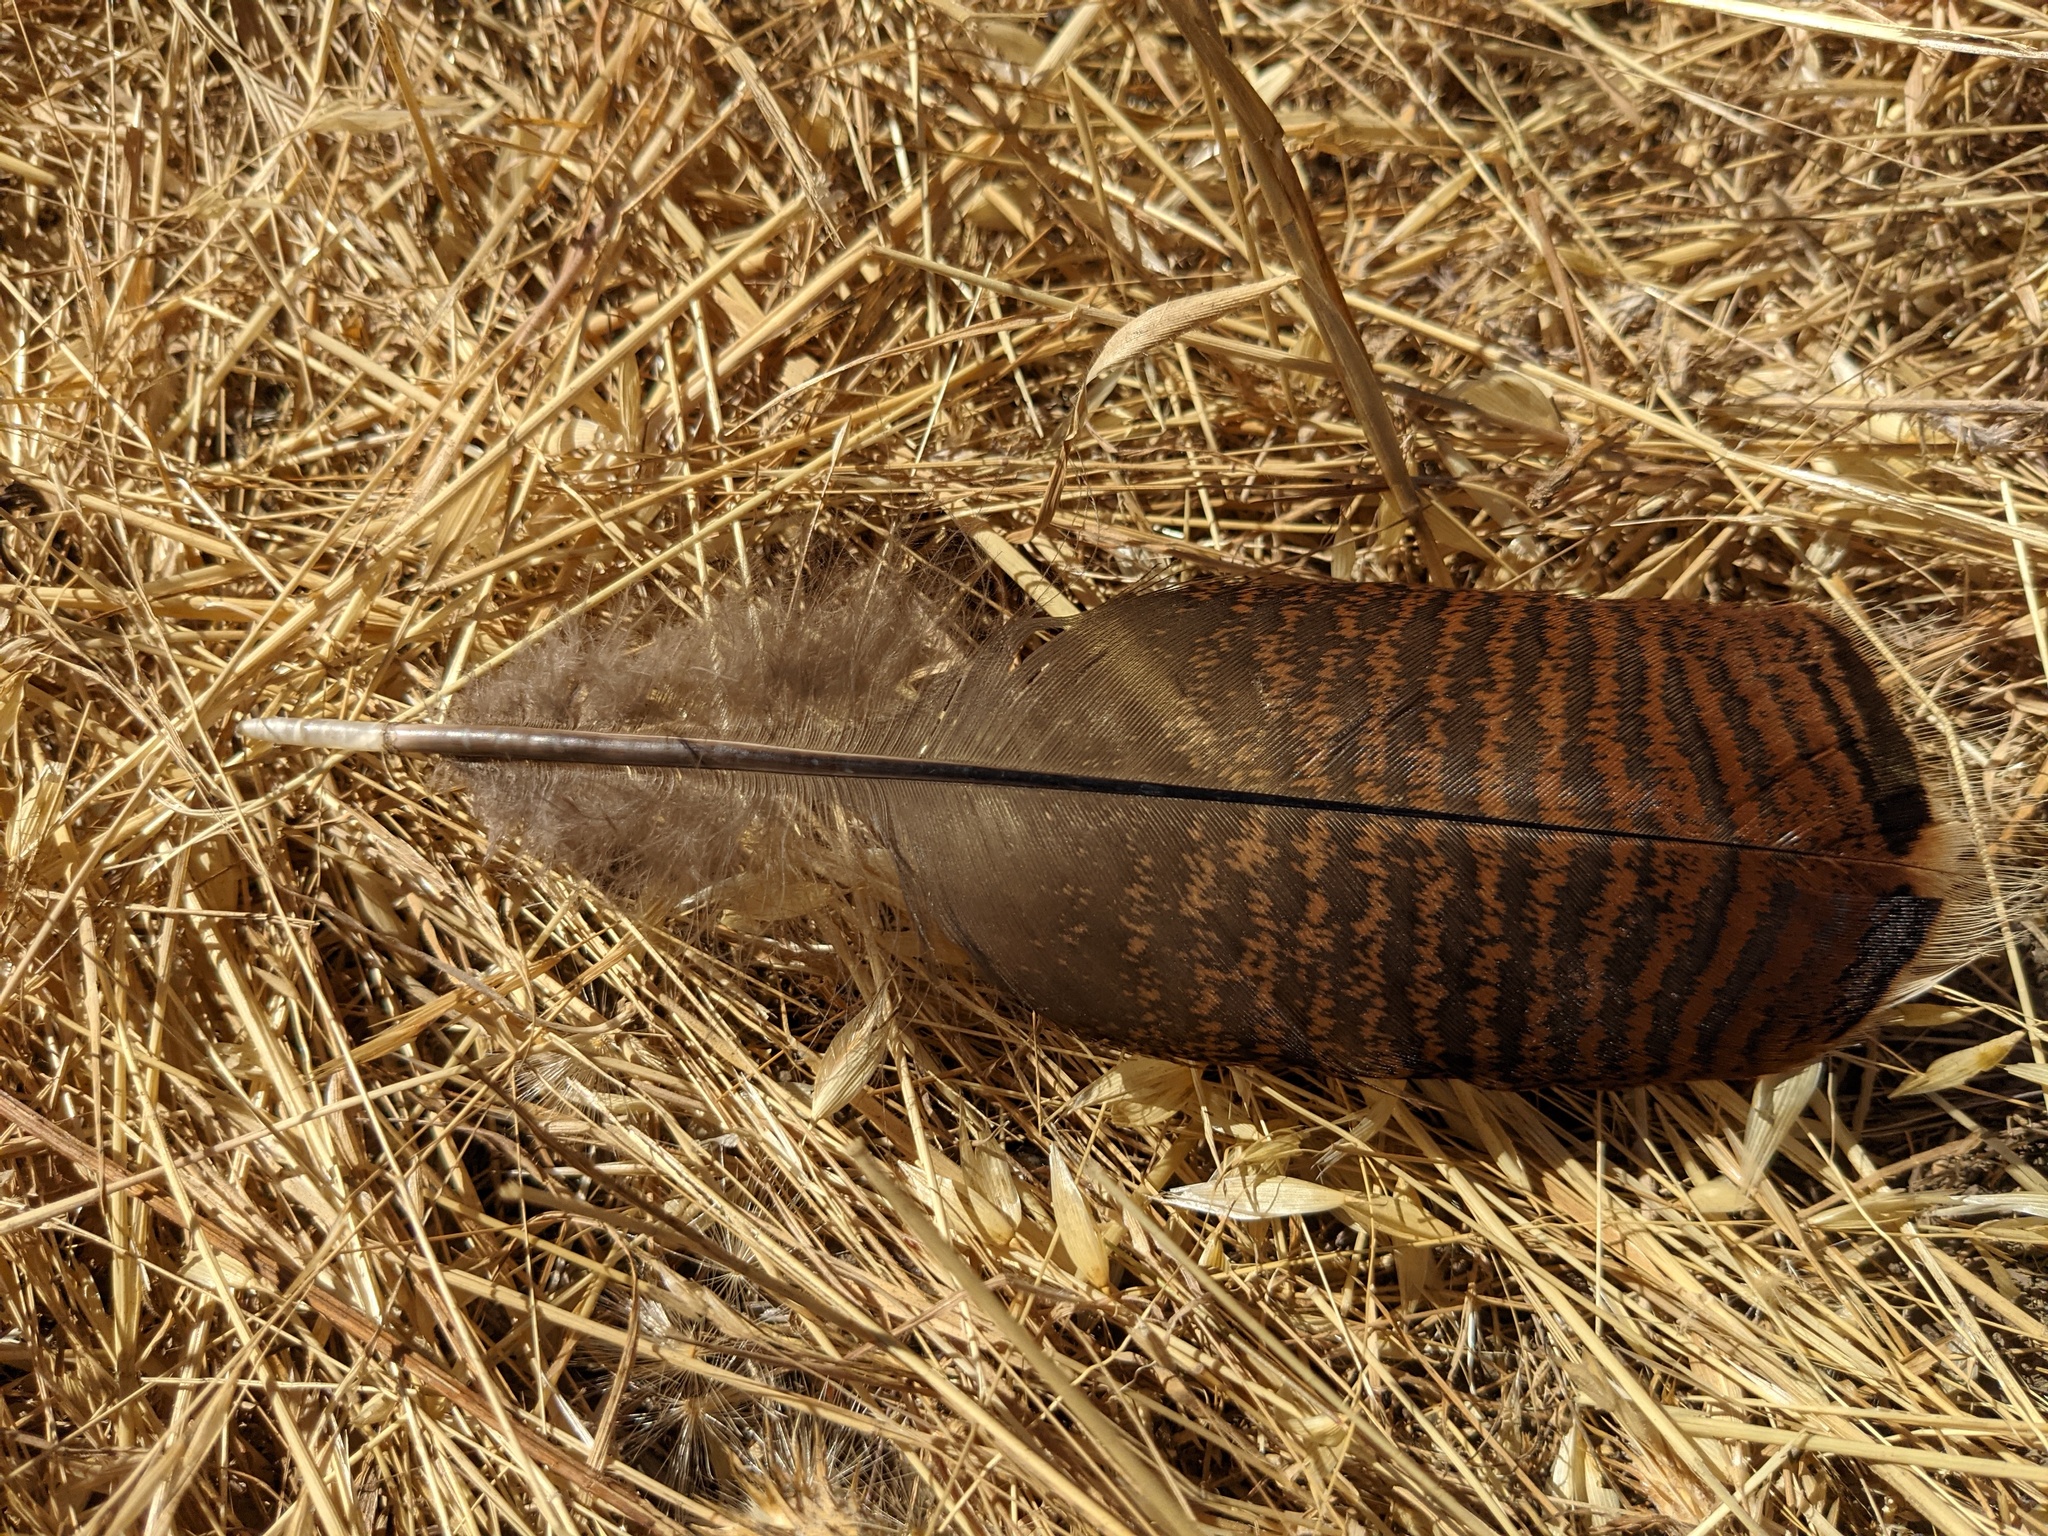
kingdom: Animalia
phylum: Chordata
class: Aves
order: Galliformes
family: Phasianidae
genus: Meleagris
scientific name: Meleagris gallopavo
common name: Wild turkey
